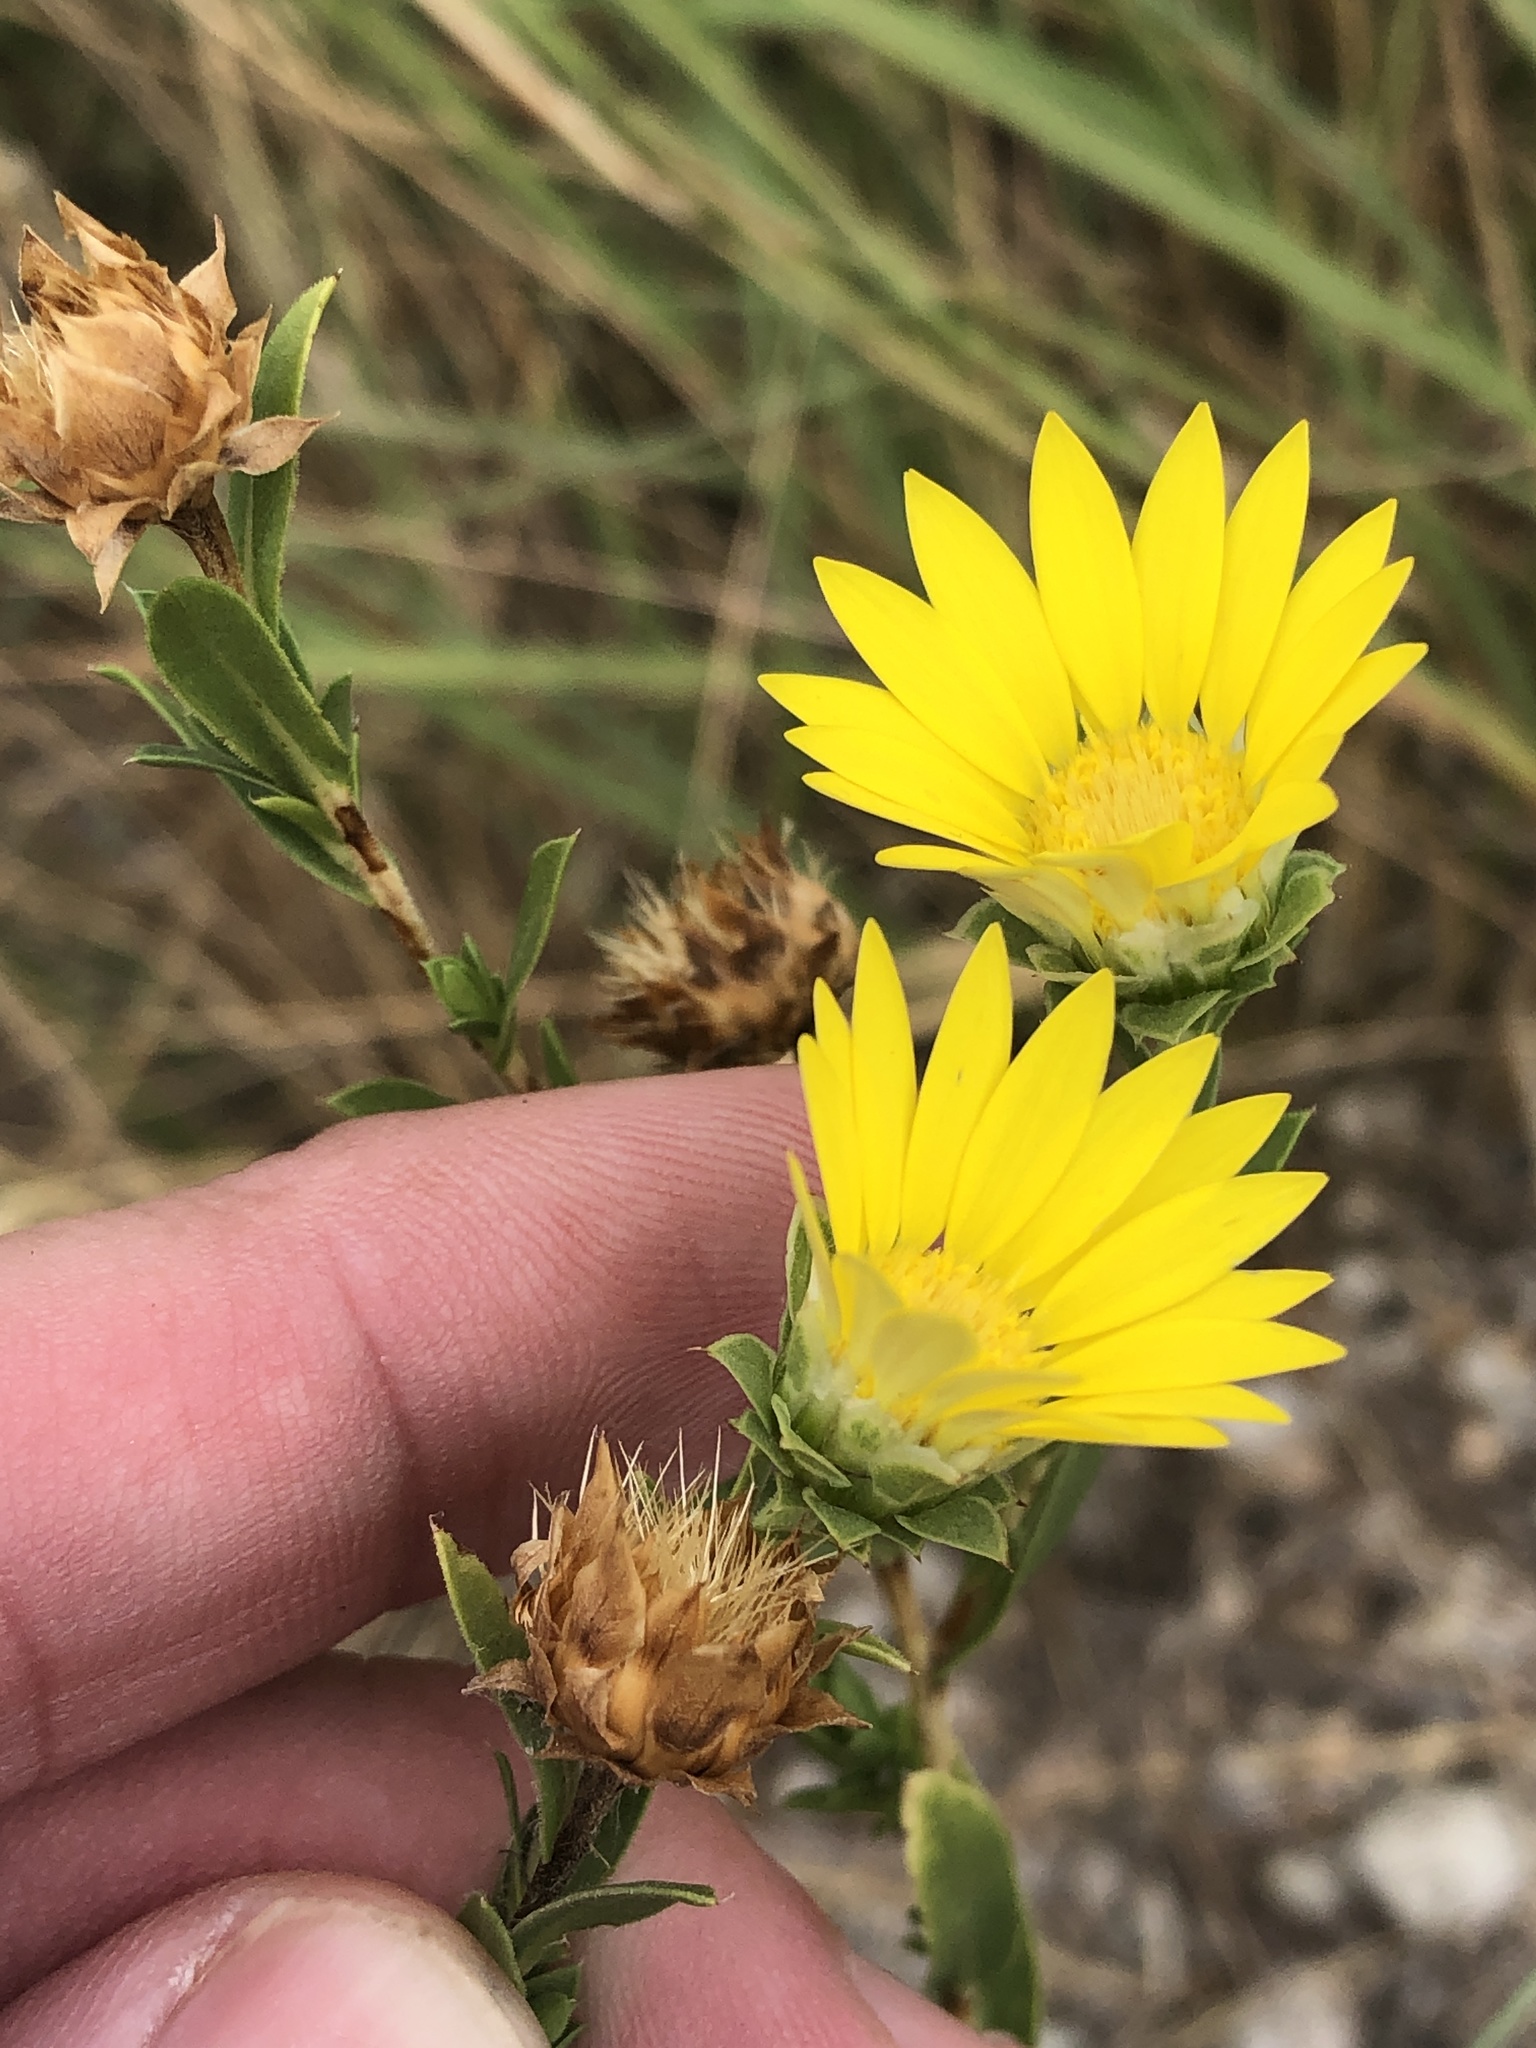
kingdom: Plantae
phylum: Tracheophyta
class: Magnoliopsida
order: Asterales
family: Asteraceae
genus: Xanthisma
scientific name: Xanthisma texanum
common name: Texas sleepy daisy
